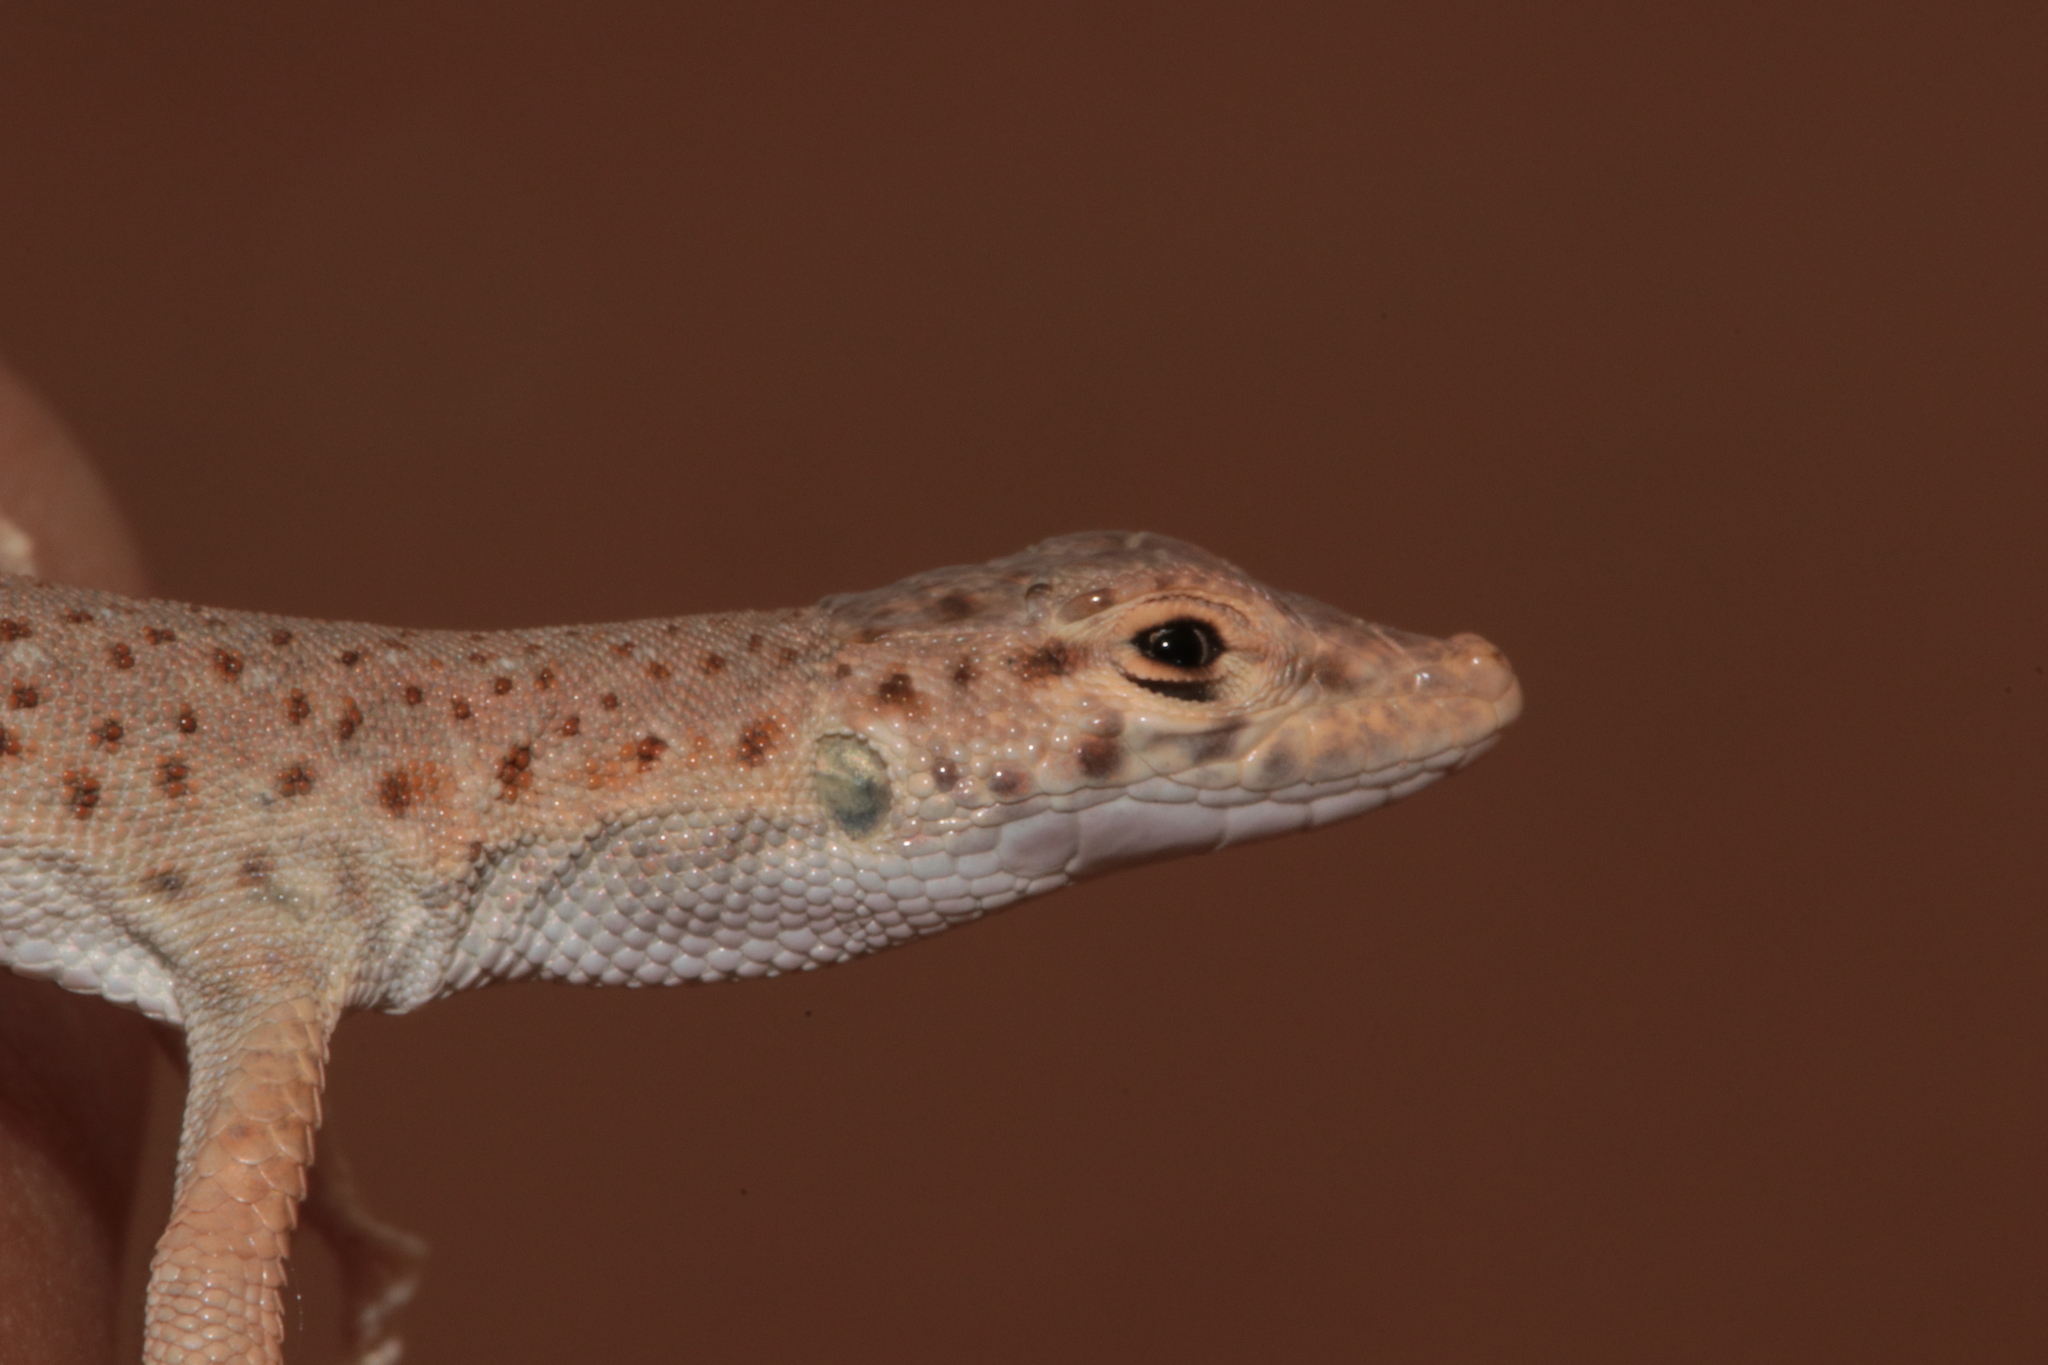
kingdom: Animalia
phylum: Chordata
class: Squamata
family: Lacertidae
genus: Mesalina
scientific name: Mesalina brevirostris
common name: Blanford's short-nosed desert lizard
